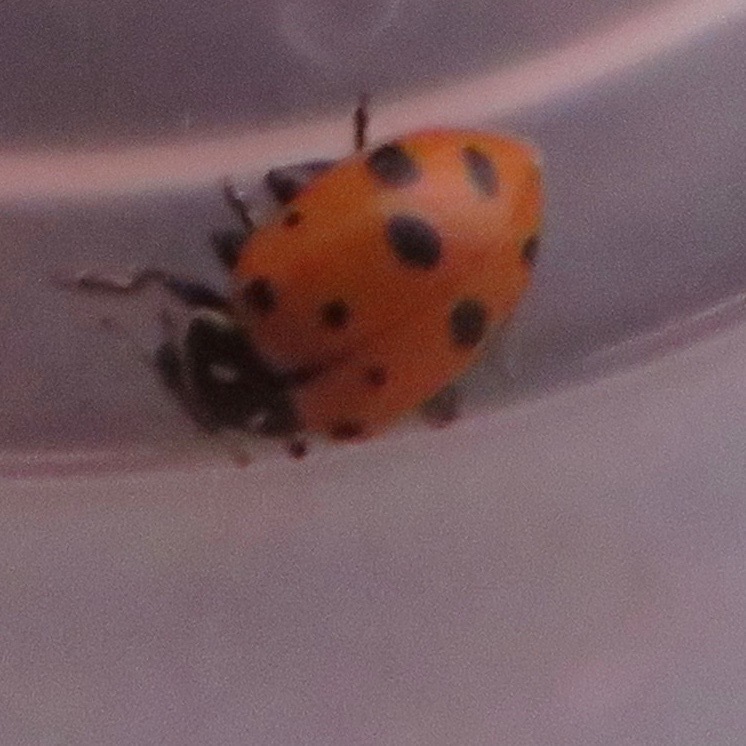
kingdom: Animalia
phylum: Arthropoda
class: Insecta
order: Coleoptera
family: Coccinellidae
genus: Hippodamia
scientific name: Hippodamia convergens
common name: Convergent lady beetle
